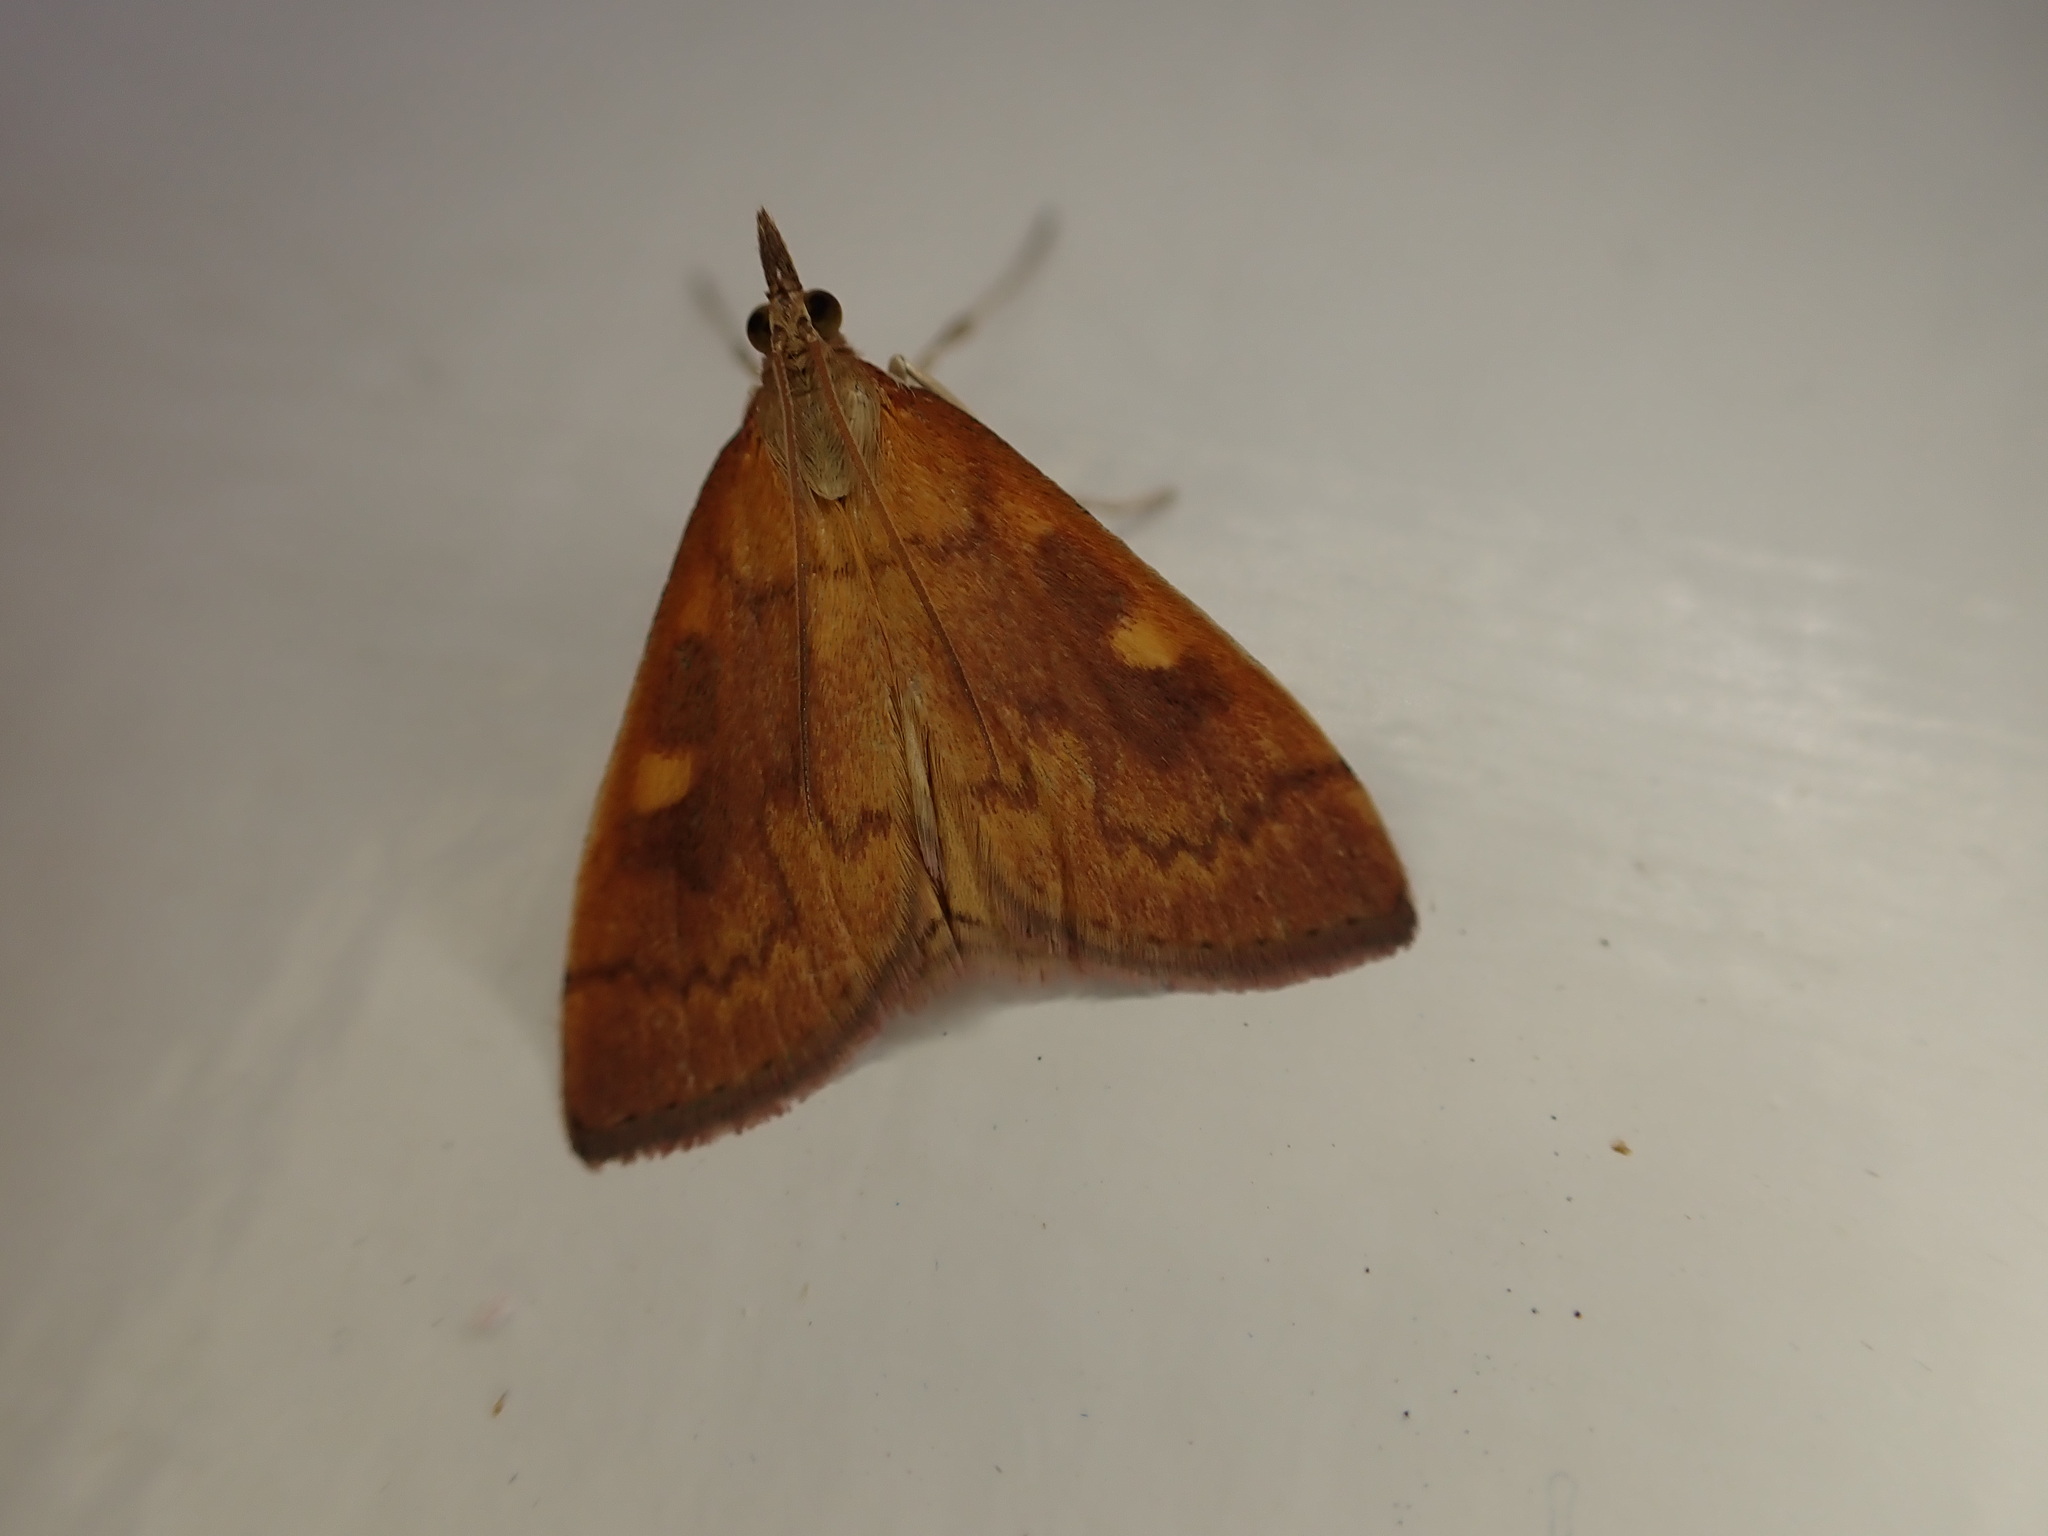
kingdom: Animalia
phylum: Arthropoda
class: Insecta
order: Lepidoptera
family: Crambidae
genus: Udea
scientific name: Udea Mnesictena flavidalis
